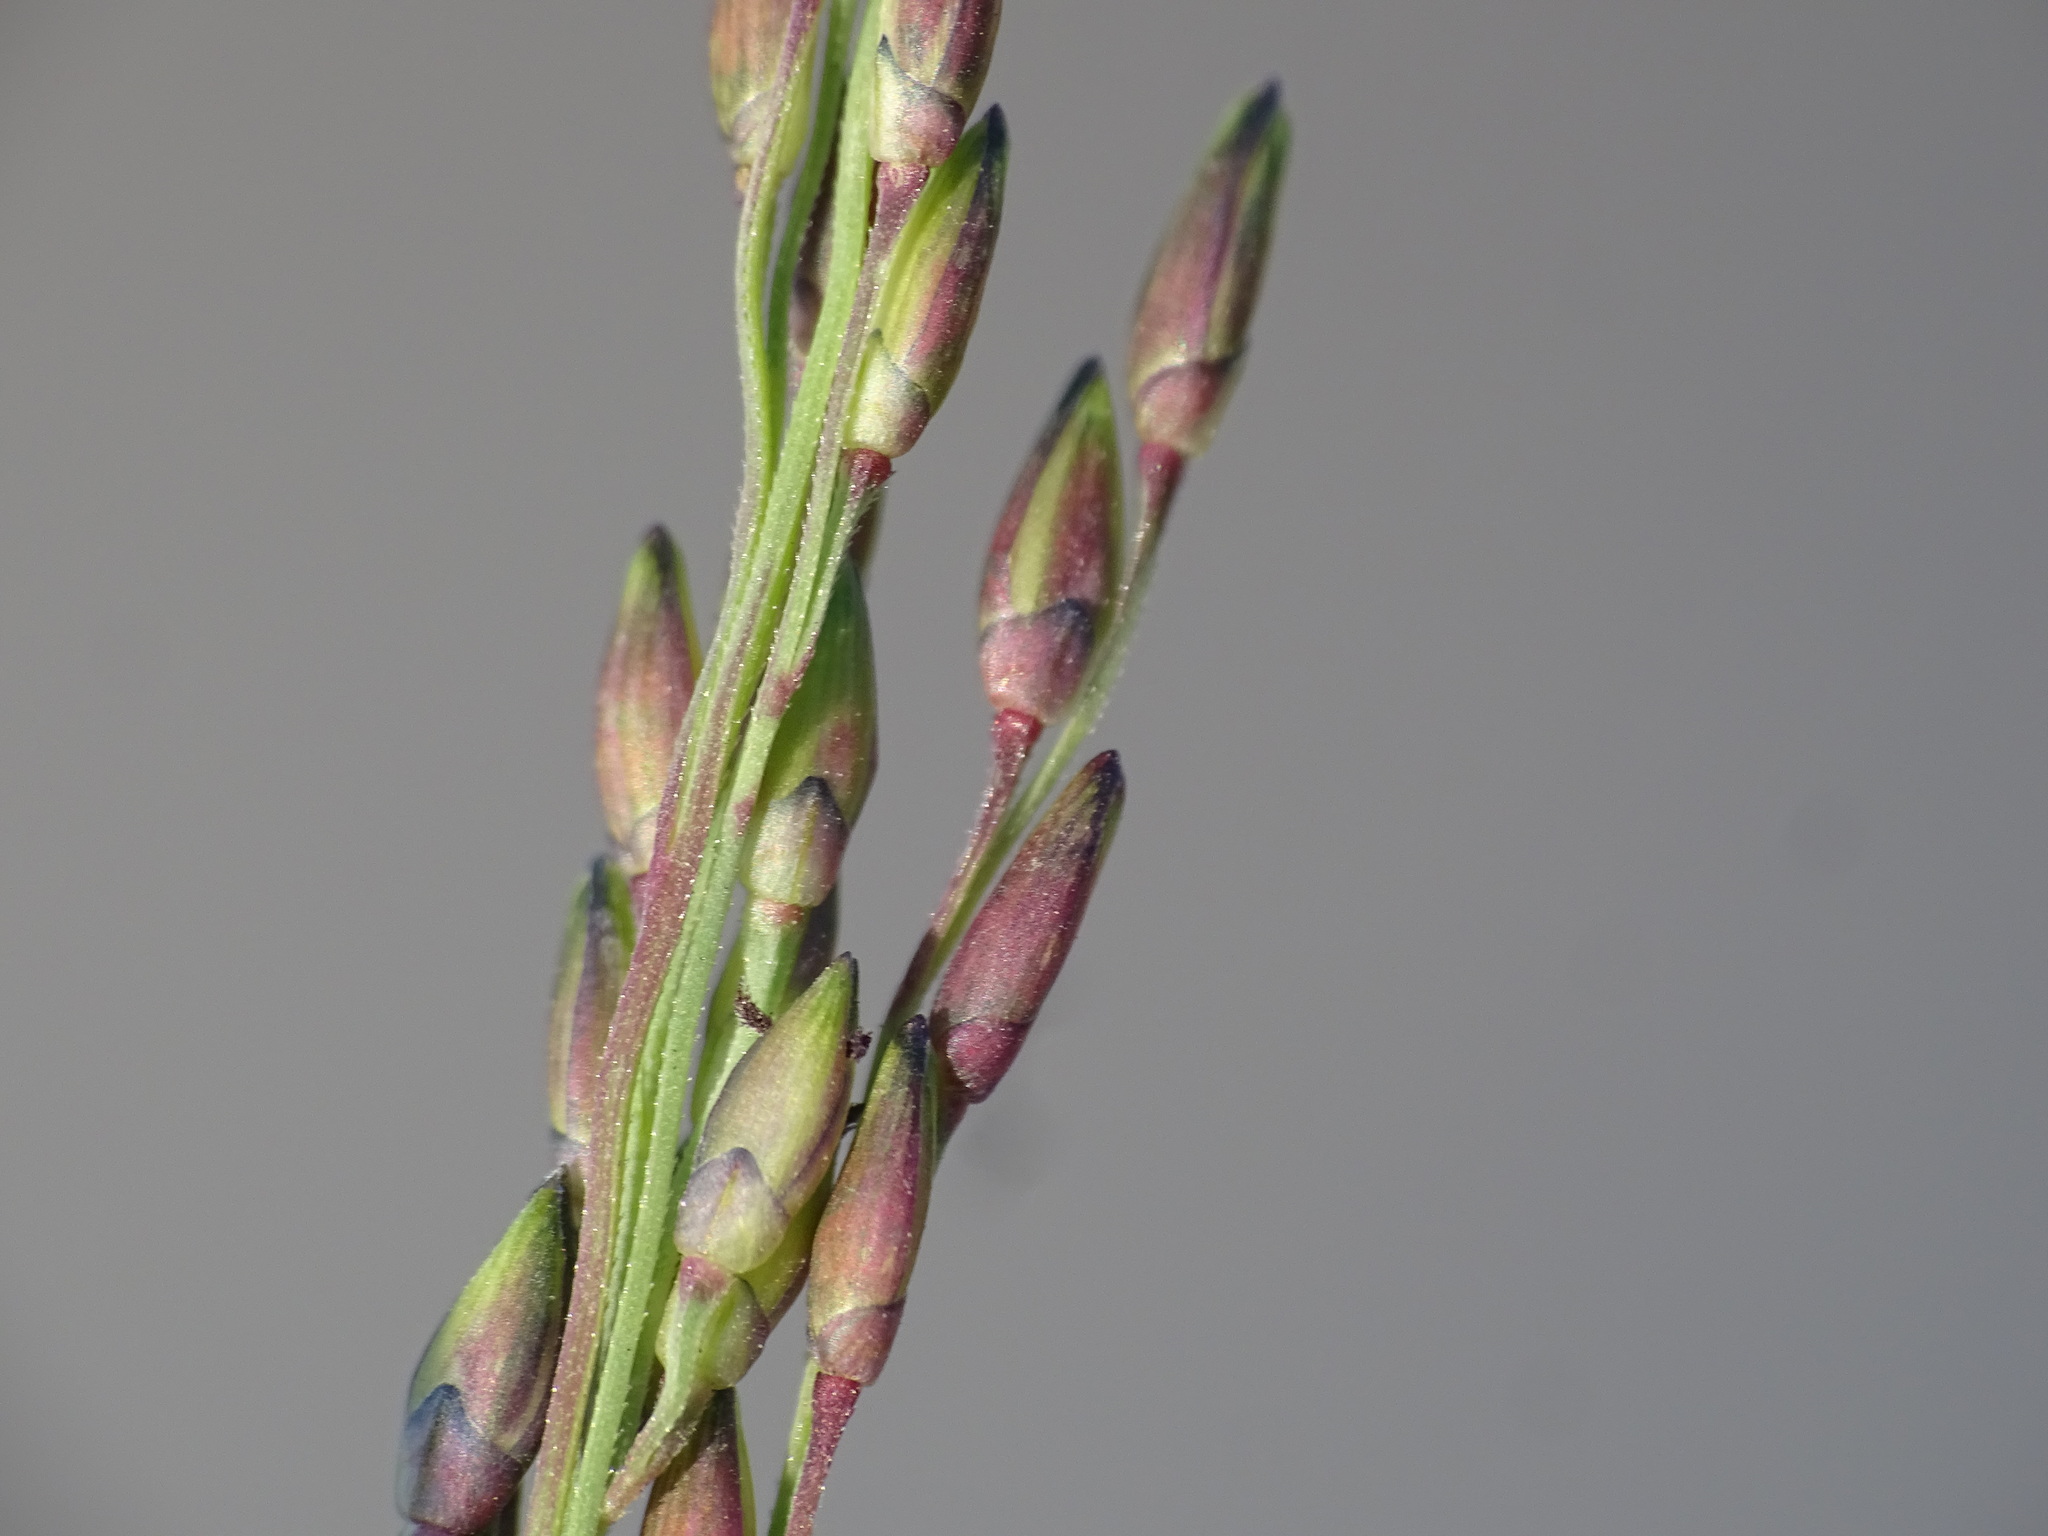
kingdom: Plantae
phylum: Tracheophyta
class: Liliopsida
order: Poales
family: Poaceae
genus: Panicum
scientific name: Panicum dichotomiflorum
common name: Autumn millet
